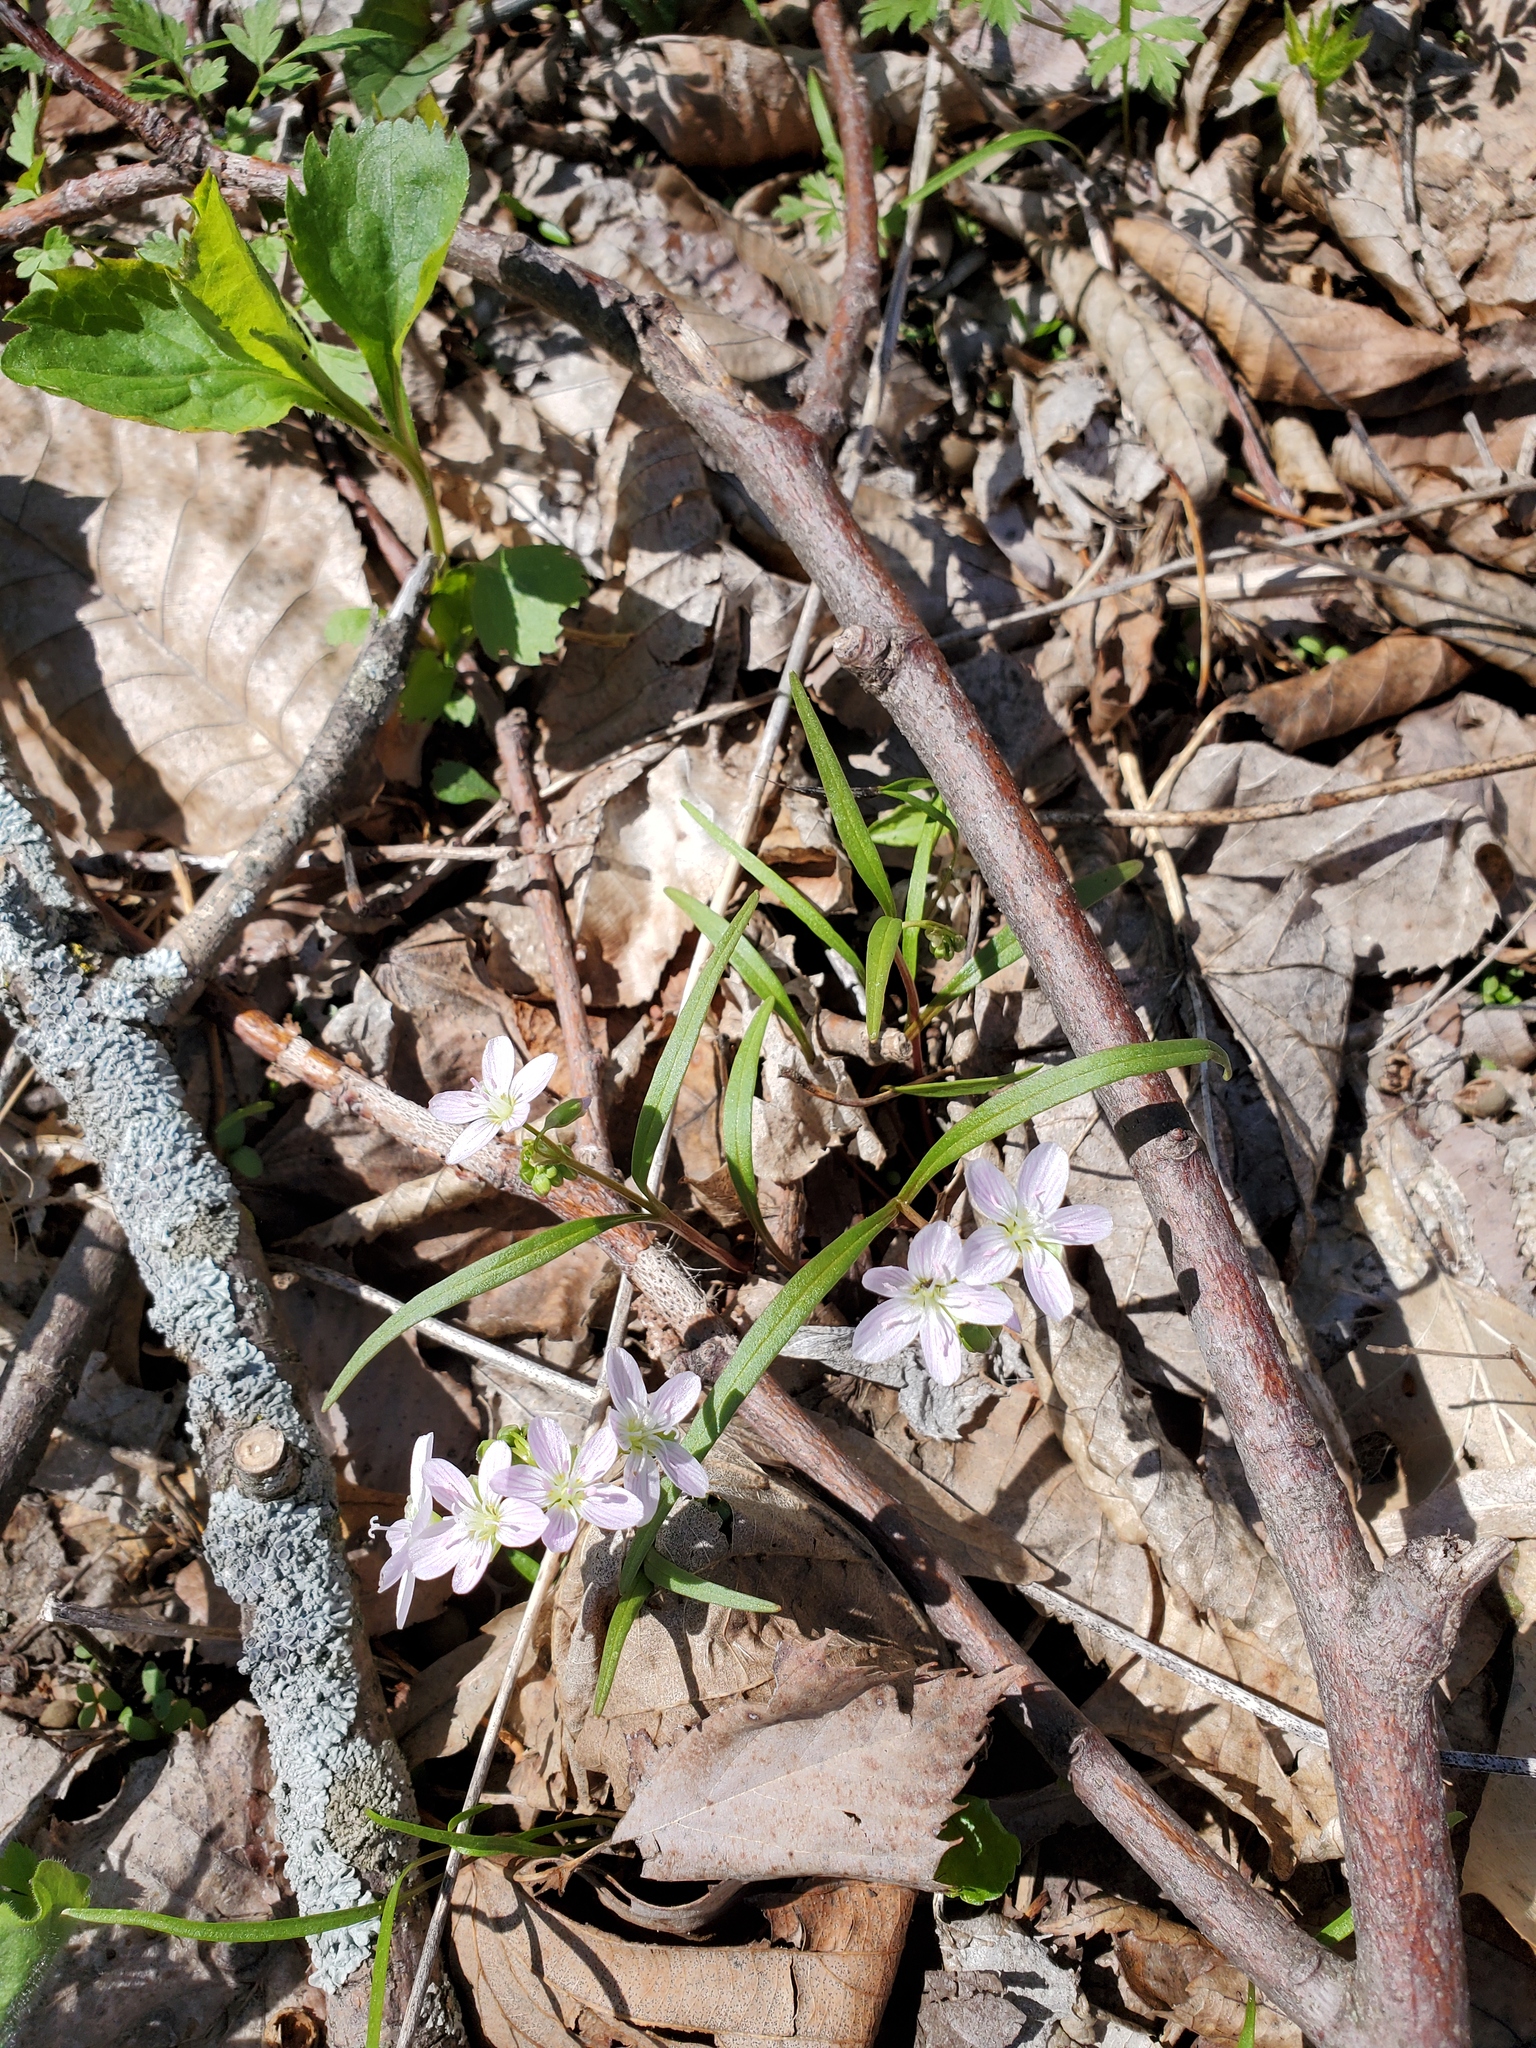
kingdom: Plantae
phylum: Tracheophyta
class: Magnoliopsida
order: Caryophyllales
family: Montiaceae
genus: Claytonia
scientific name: Claytonia virginica
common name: Virginia springbeauty
